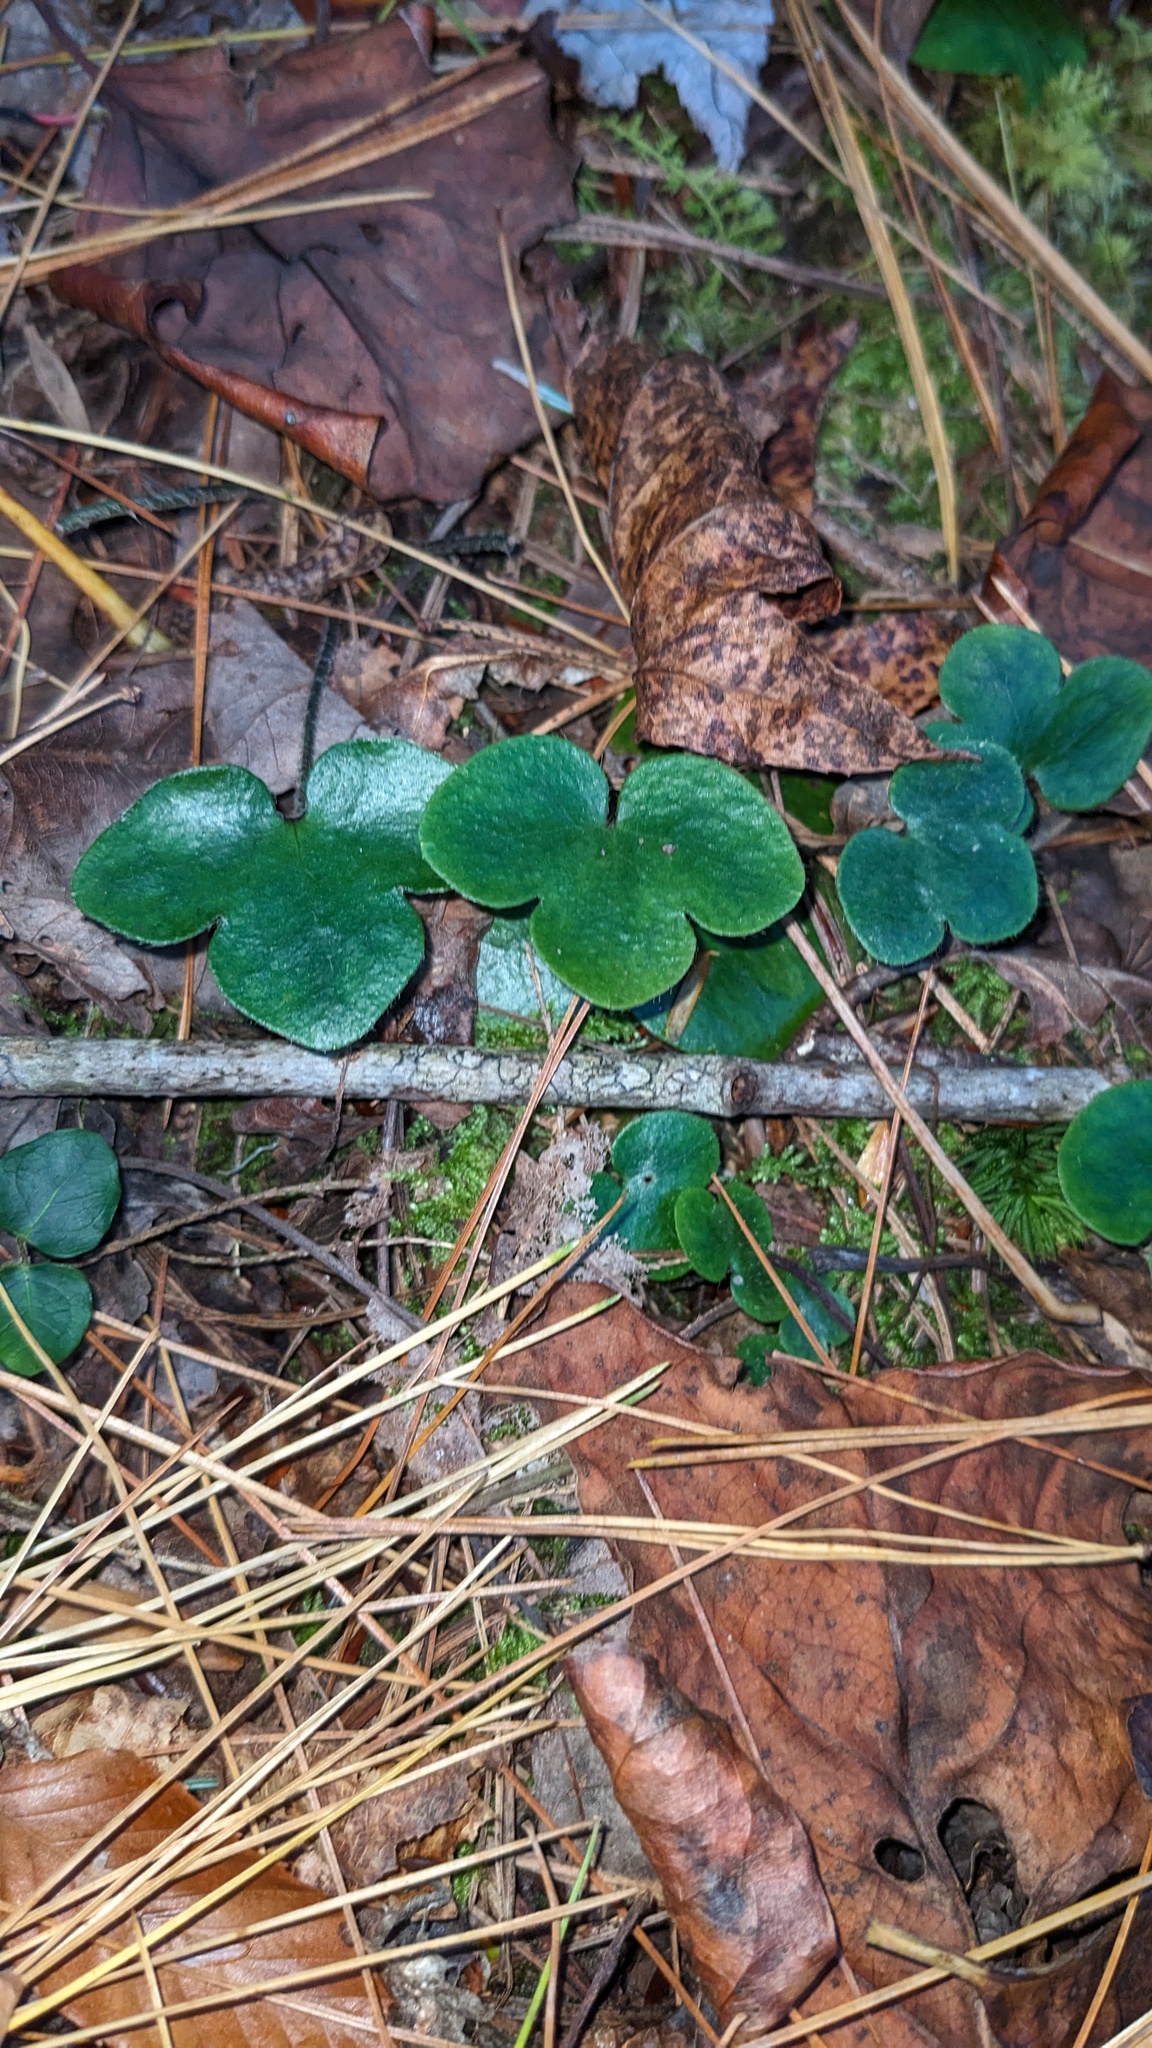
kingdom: Plantae
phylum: Tracheophyta
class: Magnoliopsida
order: Ranunculales
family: Ranunculaceae
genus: Hepatica
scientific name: Hepatica americana
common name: American hepatica
